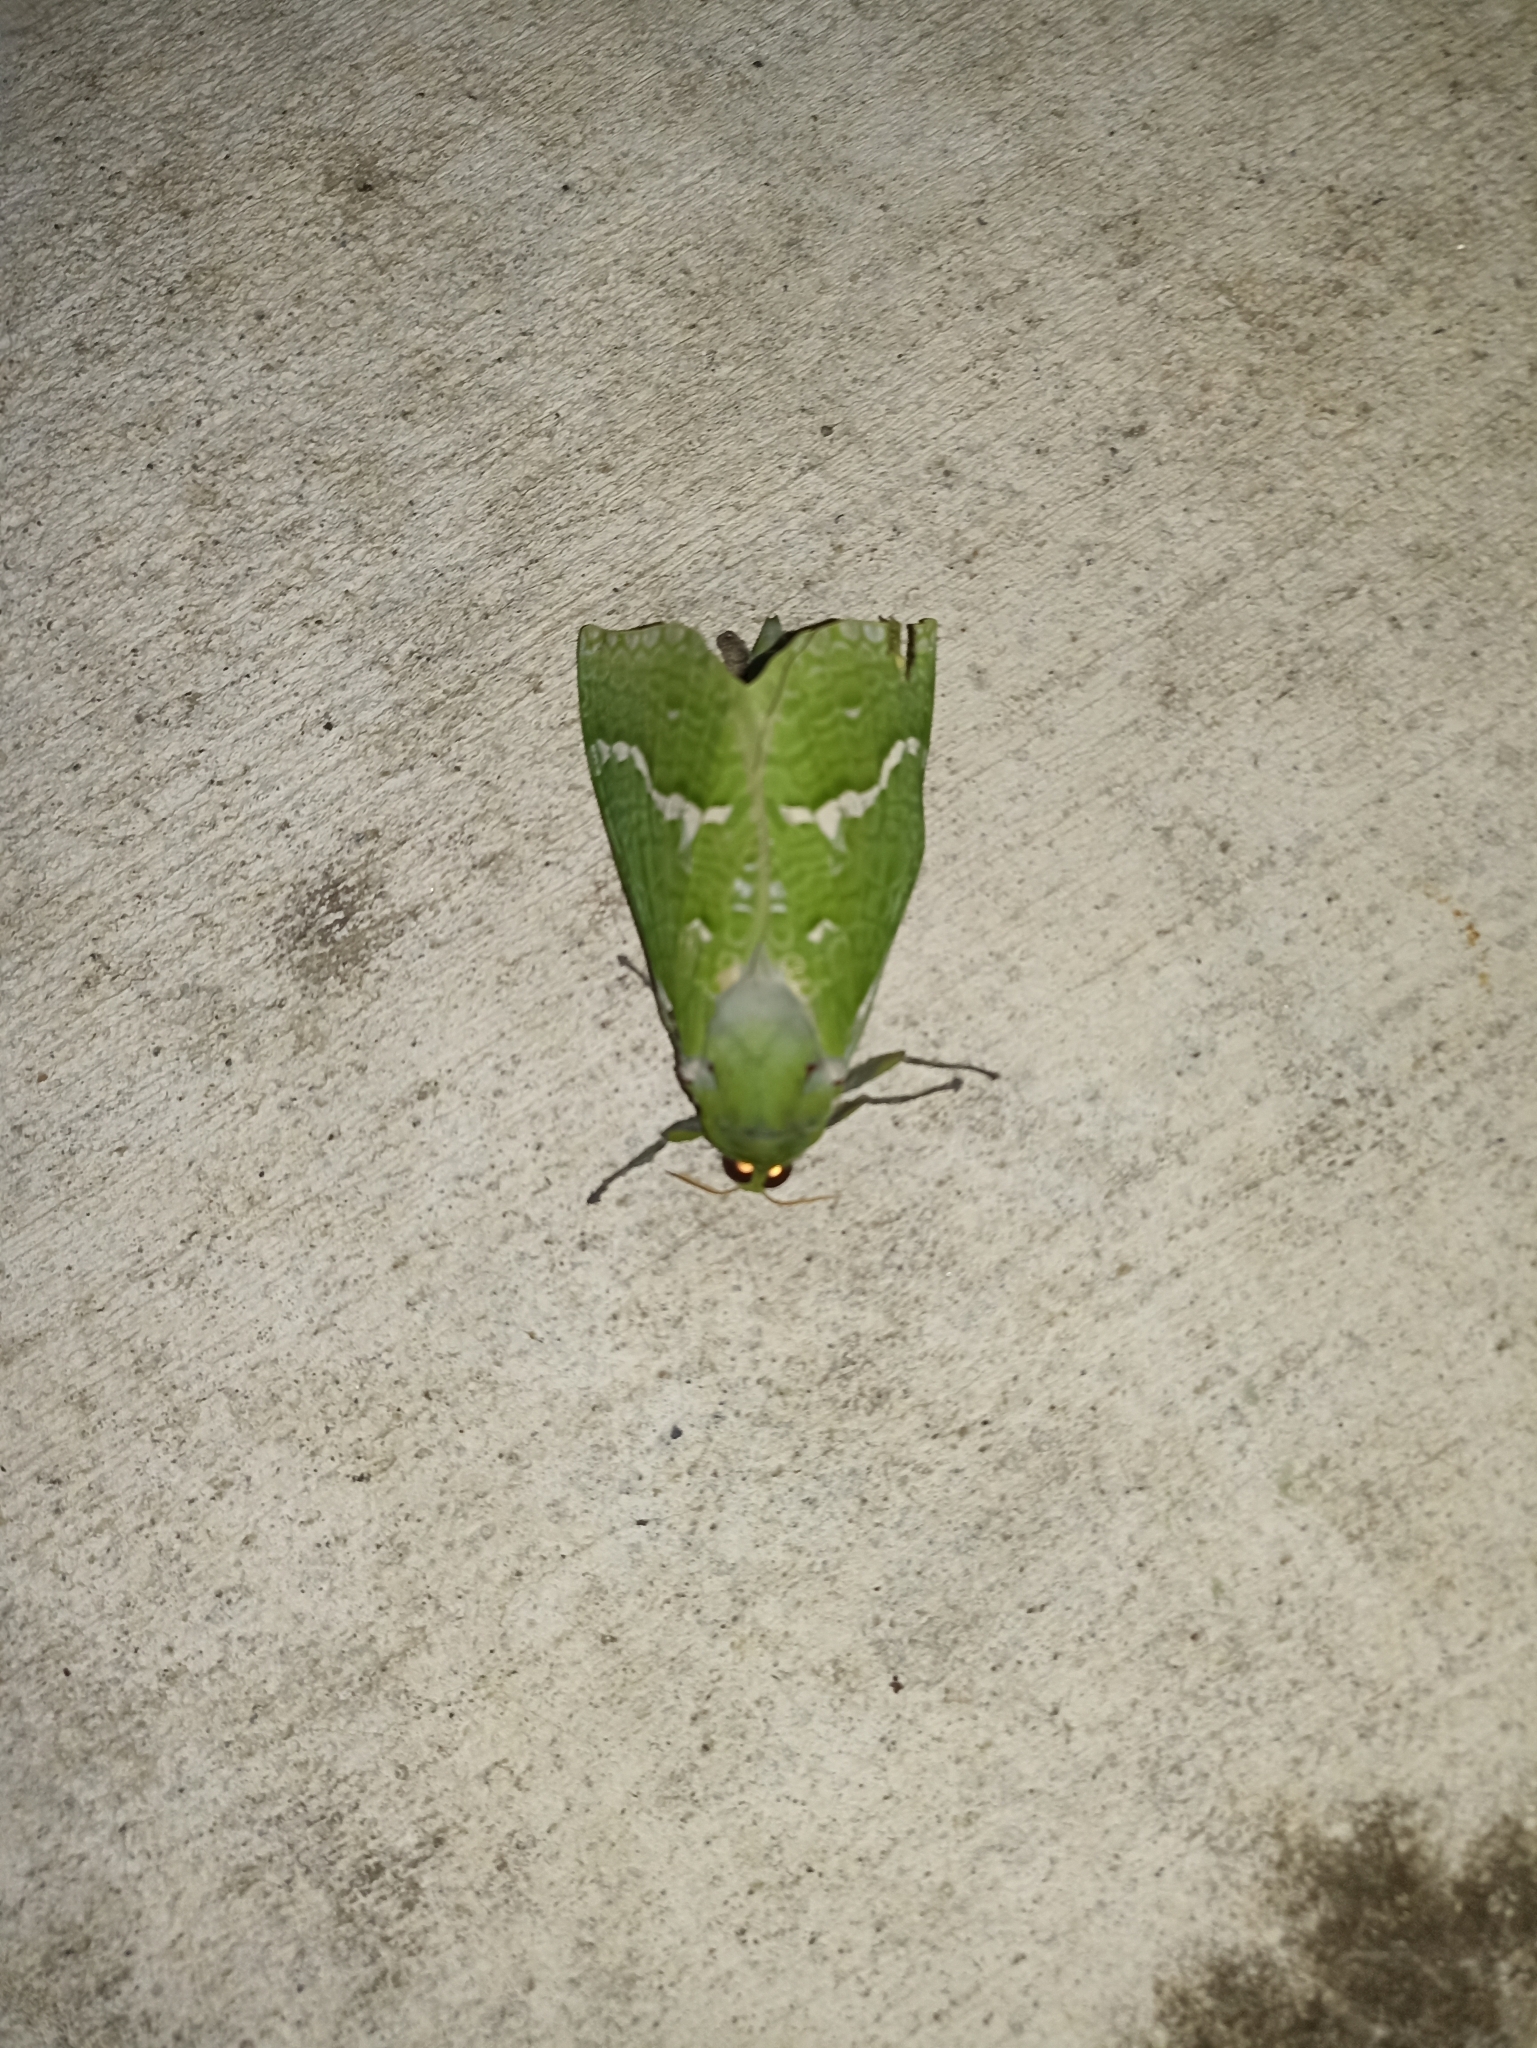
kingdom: Animalia
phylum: Arthropoda
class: Insecta
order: Lepidoptera
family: Hepialidae
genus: Aenetus
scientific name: Aenetus virescens
